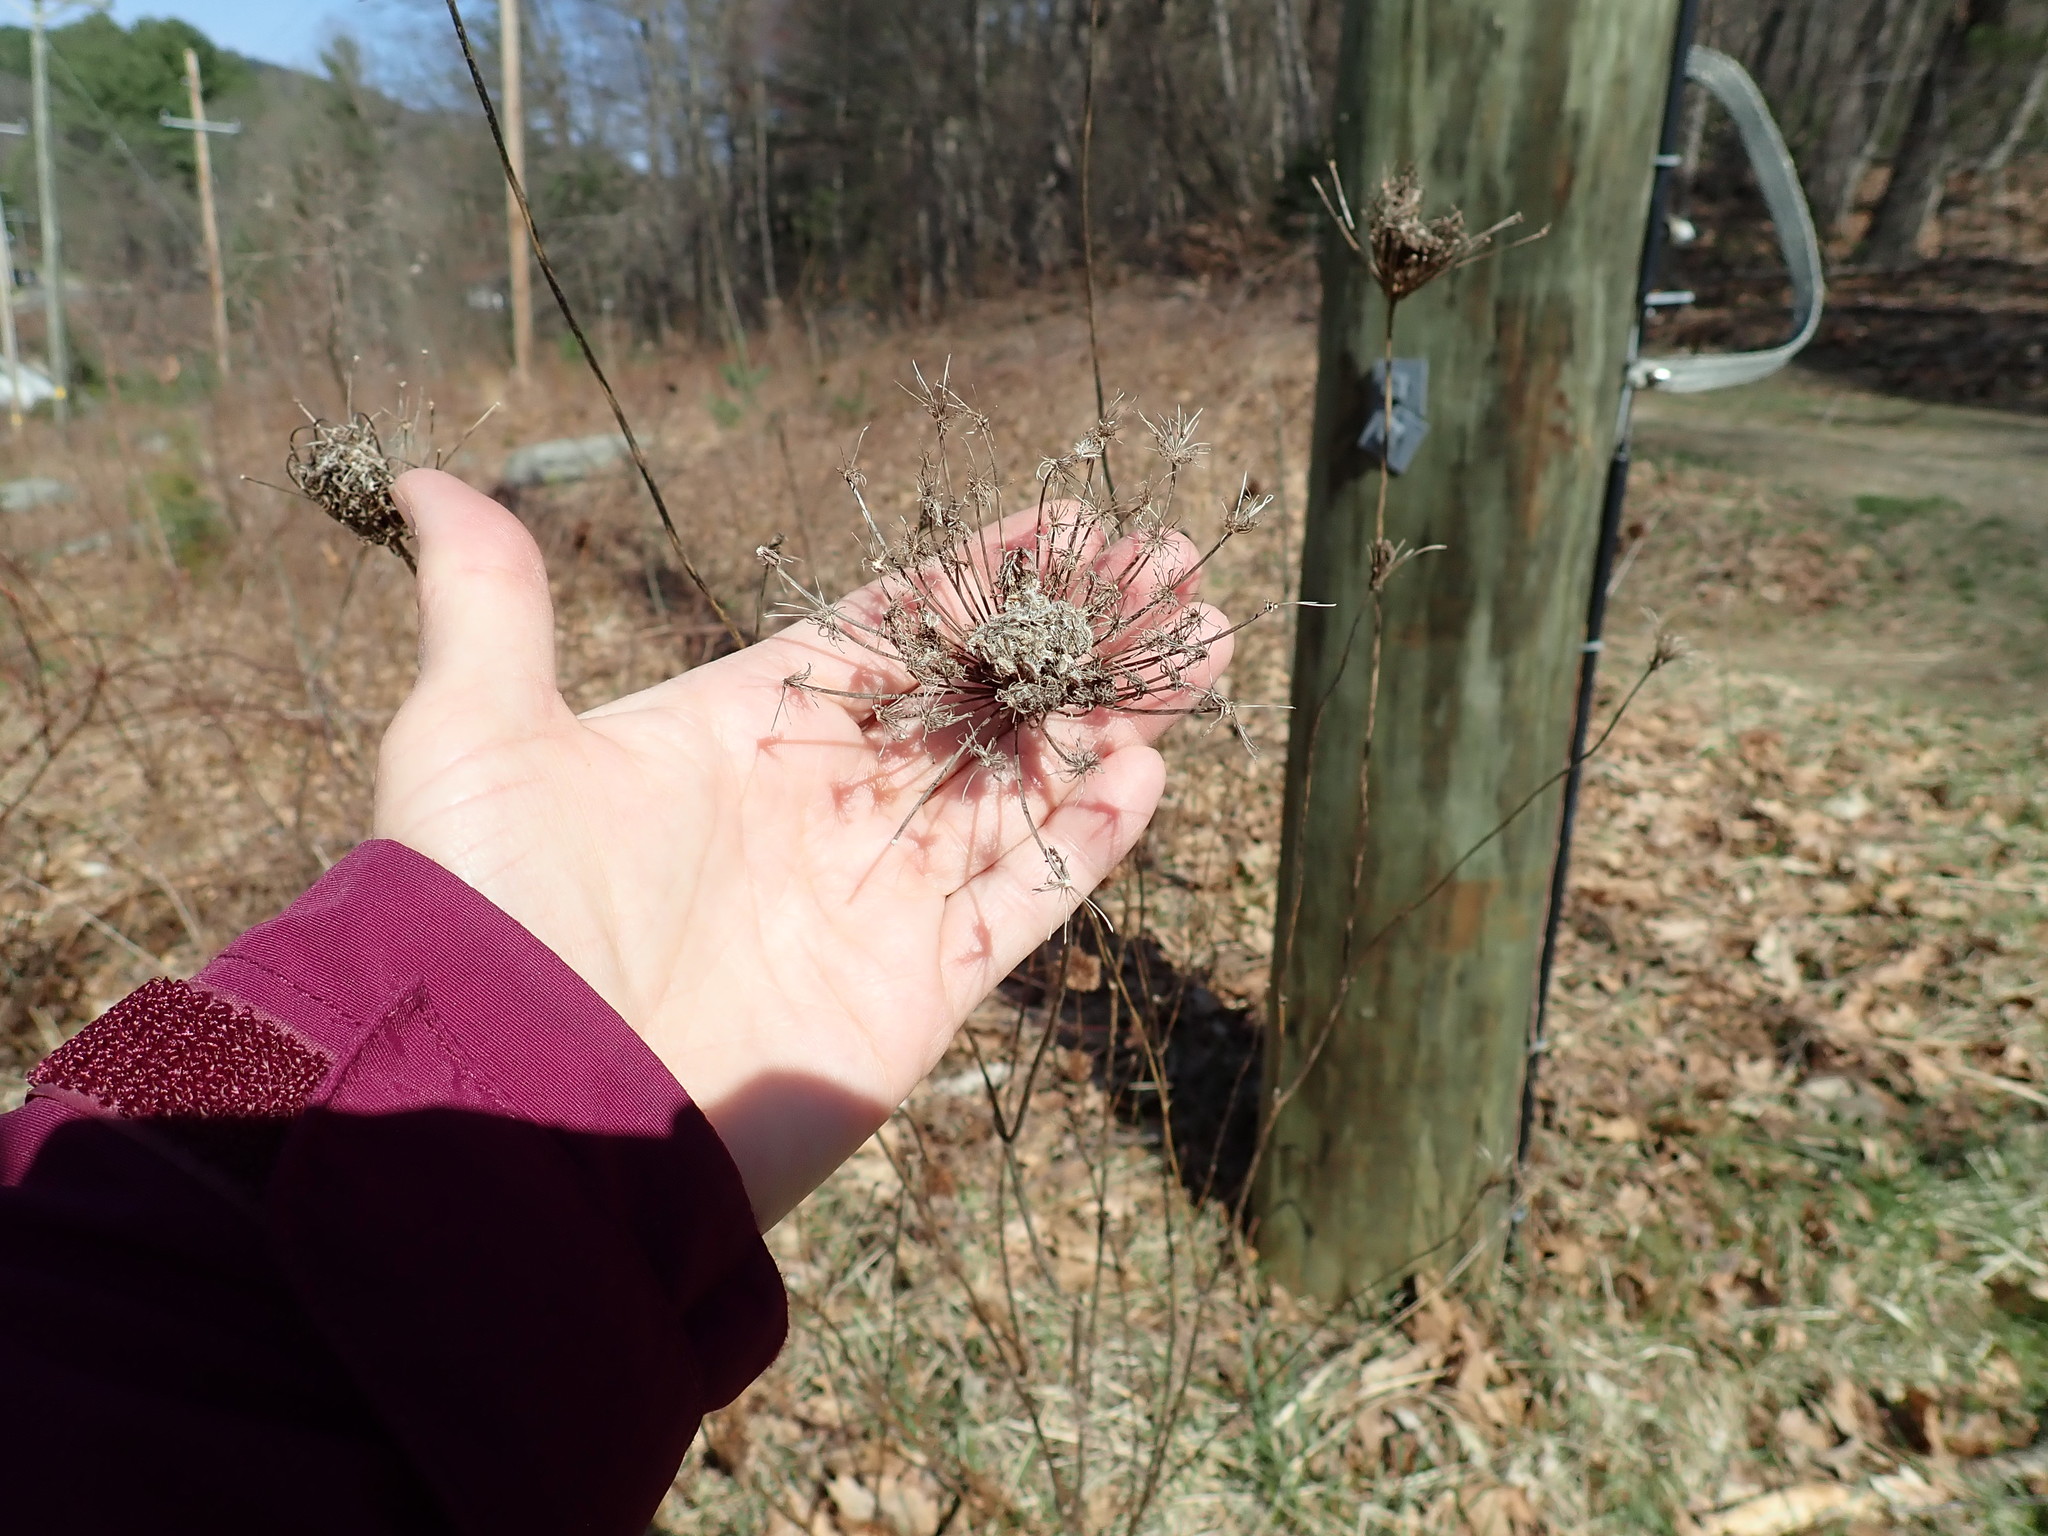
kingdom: Plantae
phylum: Tracheophyta
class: Magnoliopsida
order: Apiales
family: Apiaceae
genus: Daucus
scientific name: Daucus carota
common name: Wild carrot
